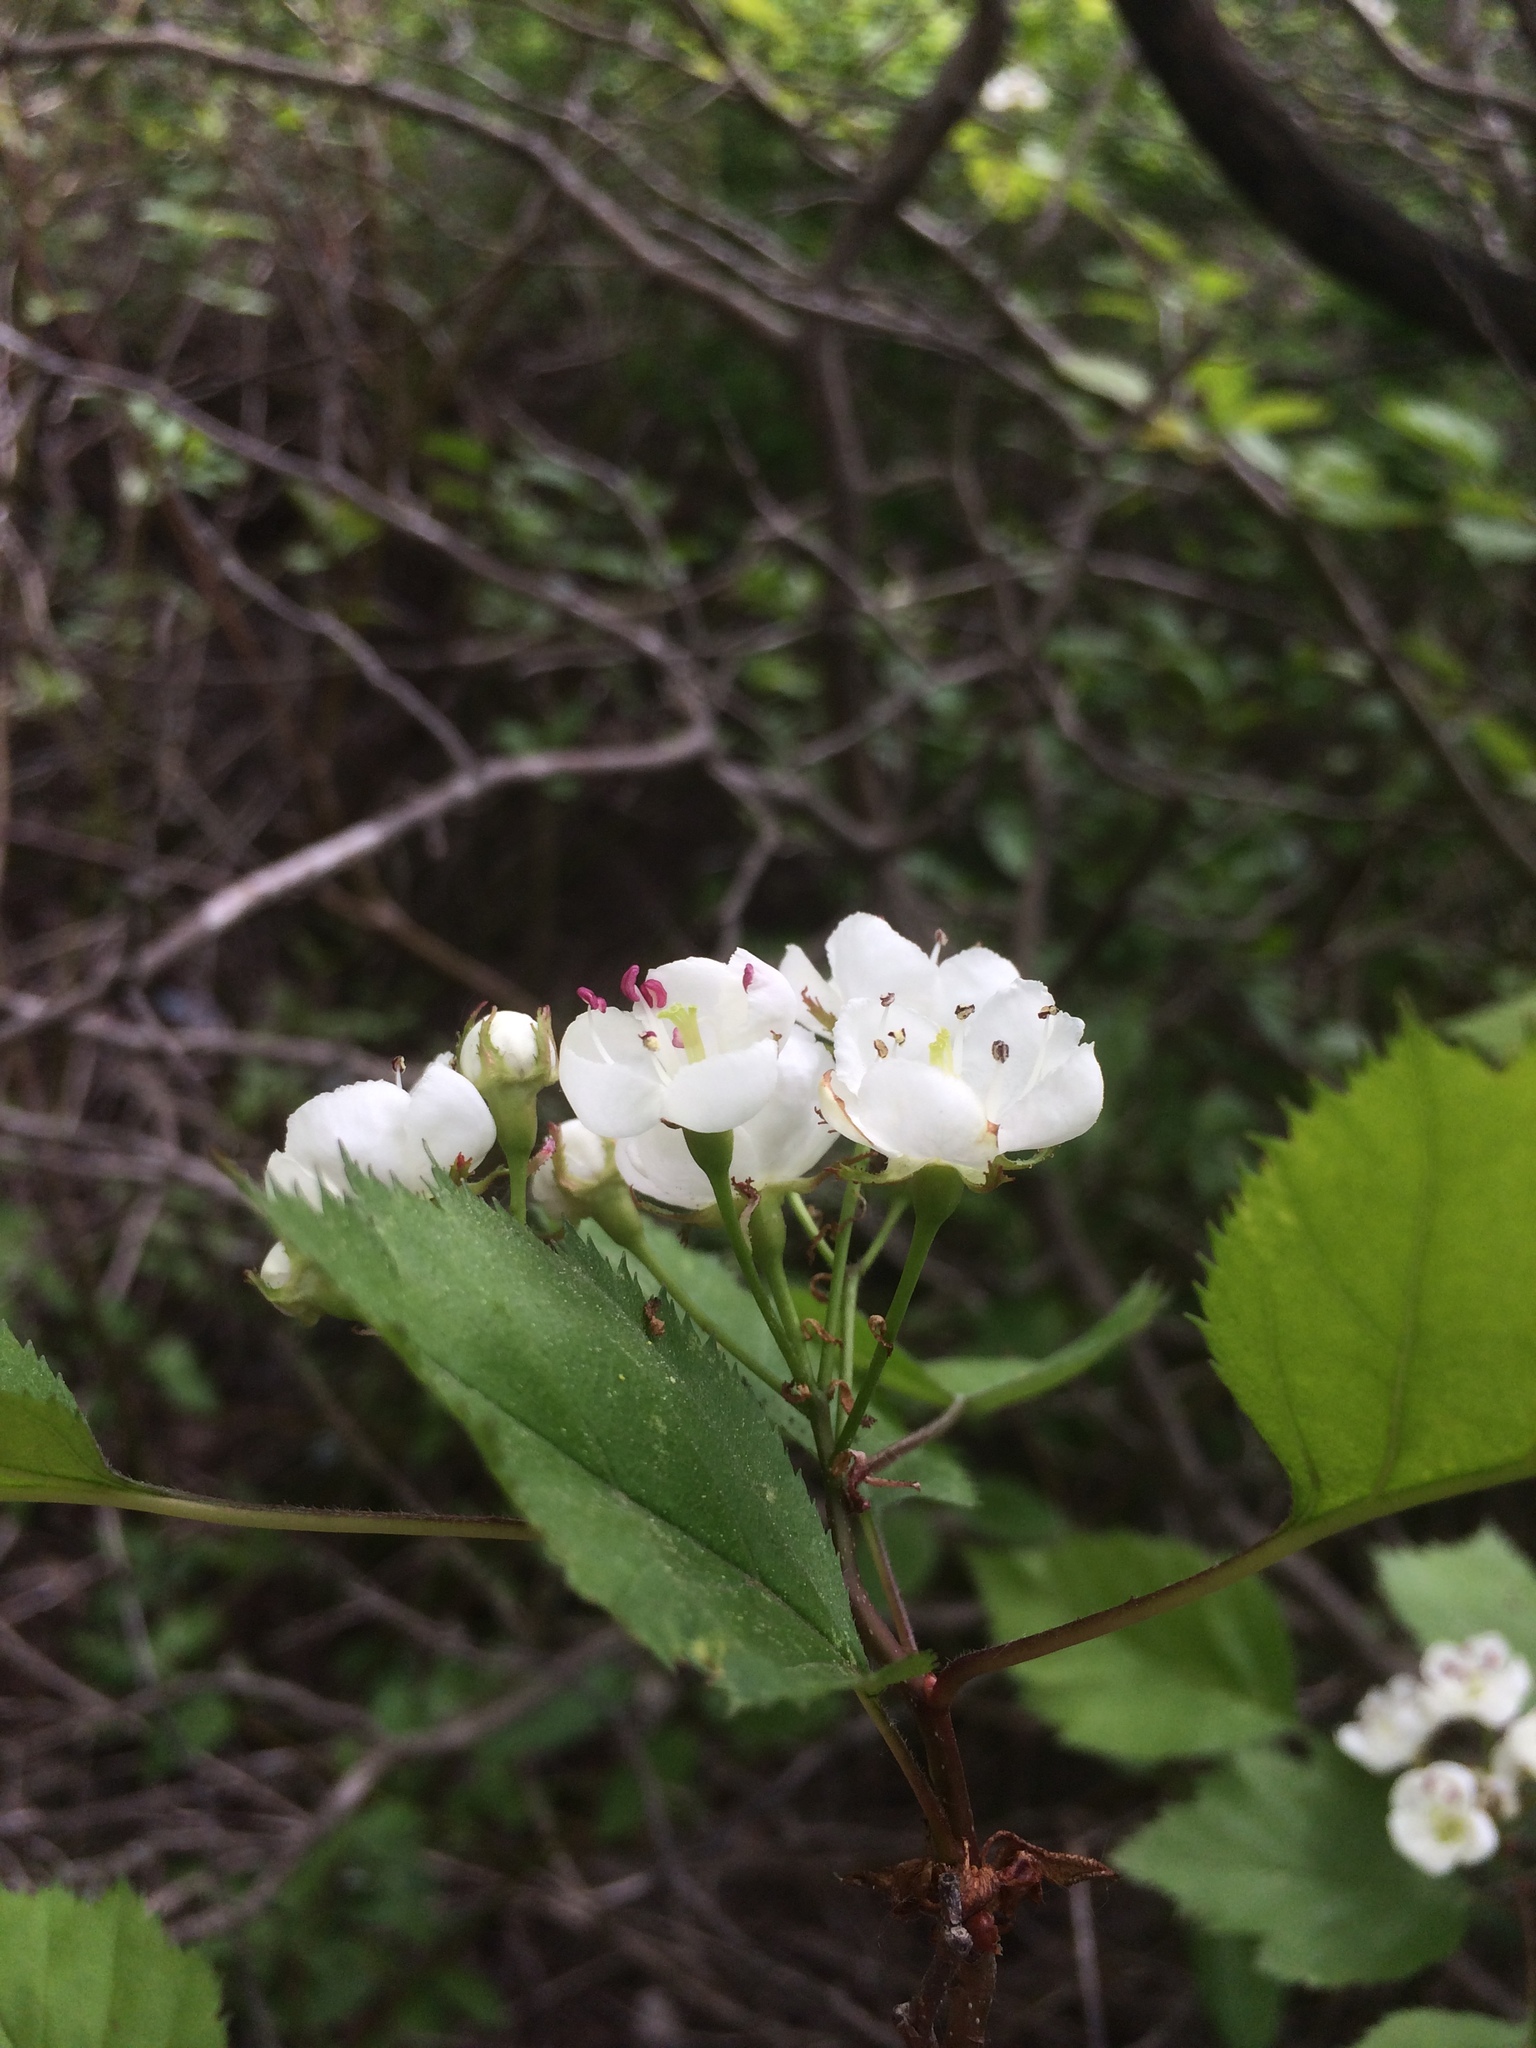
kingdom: Plantae
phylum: Tracheophyta
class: Magnoliopsida
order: Rosales
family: Rosaceae
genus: Crataegus
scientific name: Crataegus holmesiana
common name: Holmes' hawthorn
